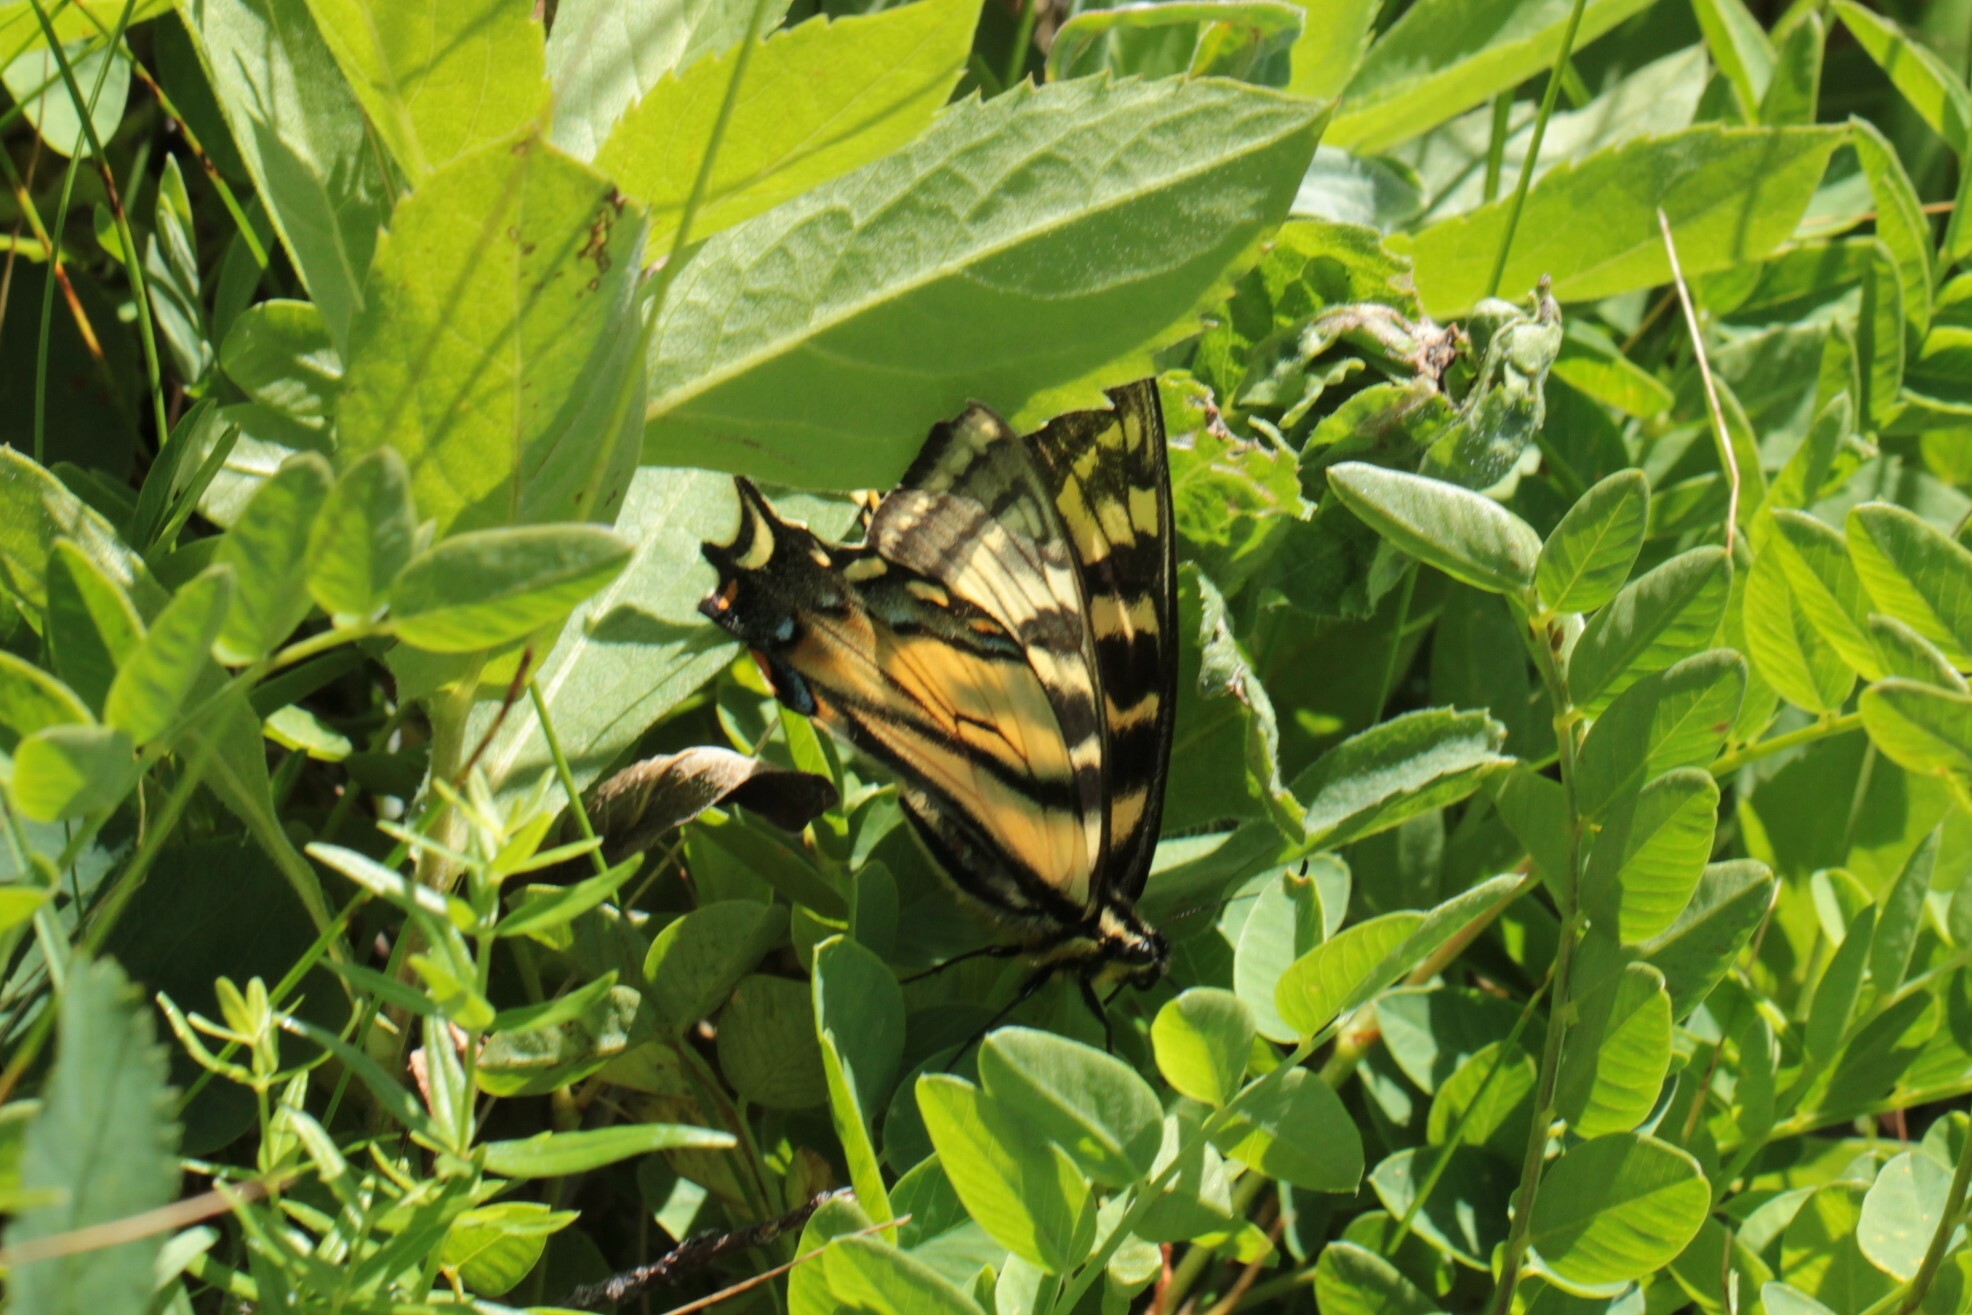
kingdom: Animalia
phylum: Arthropoda
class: Insecta
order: Lepidoptera
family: Papilionidae
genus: Papilio
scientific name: Papilio canadensis
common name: Canadian tiger swallowtail
